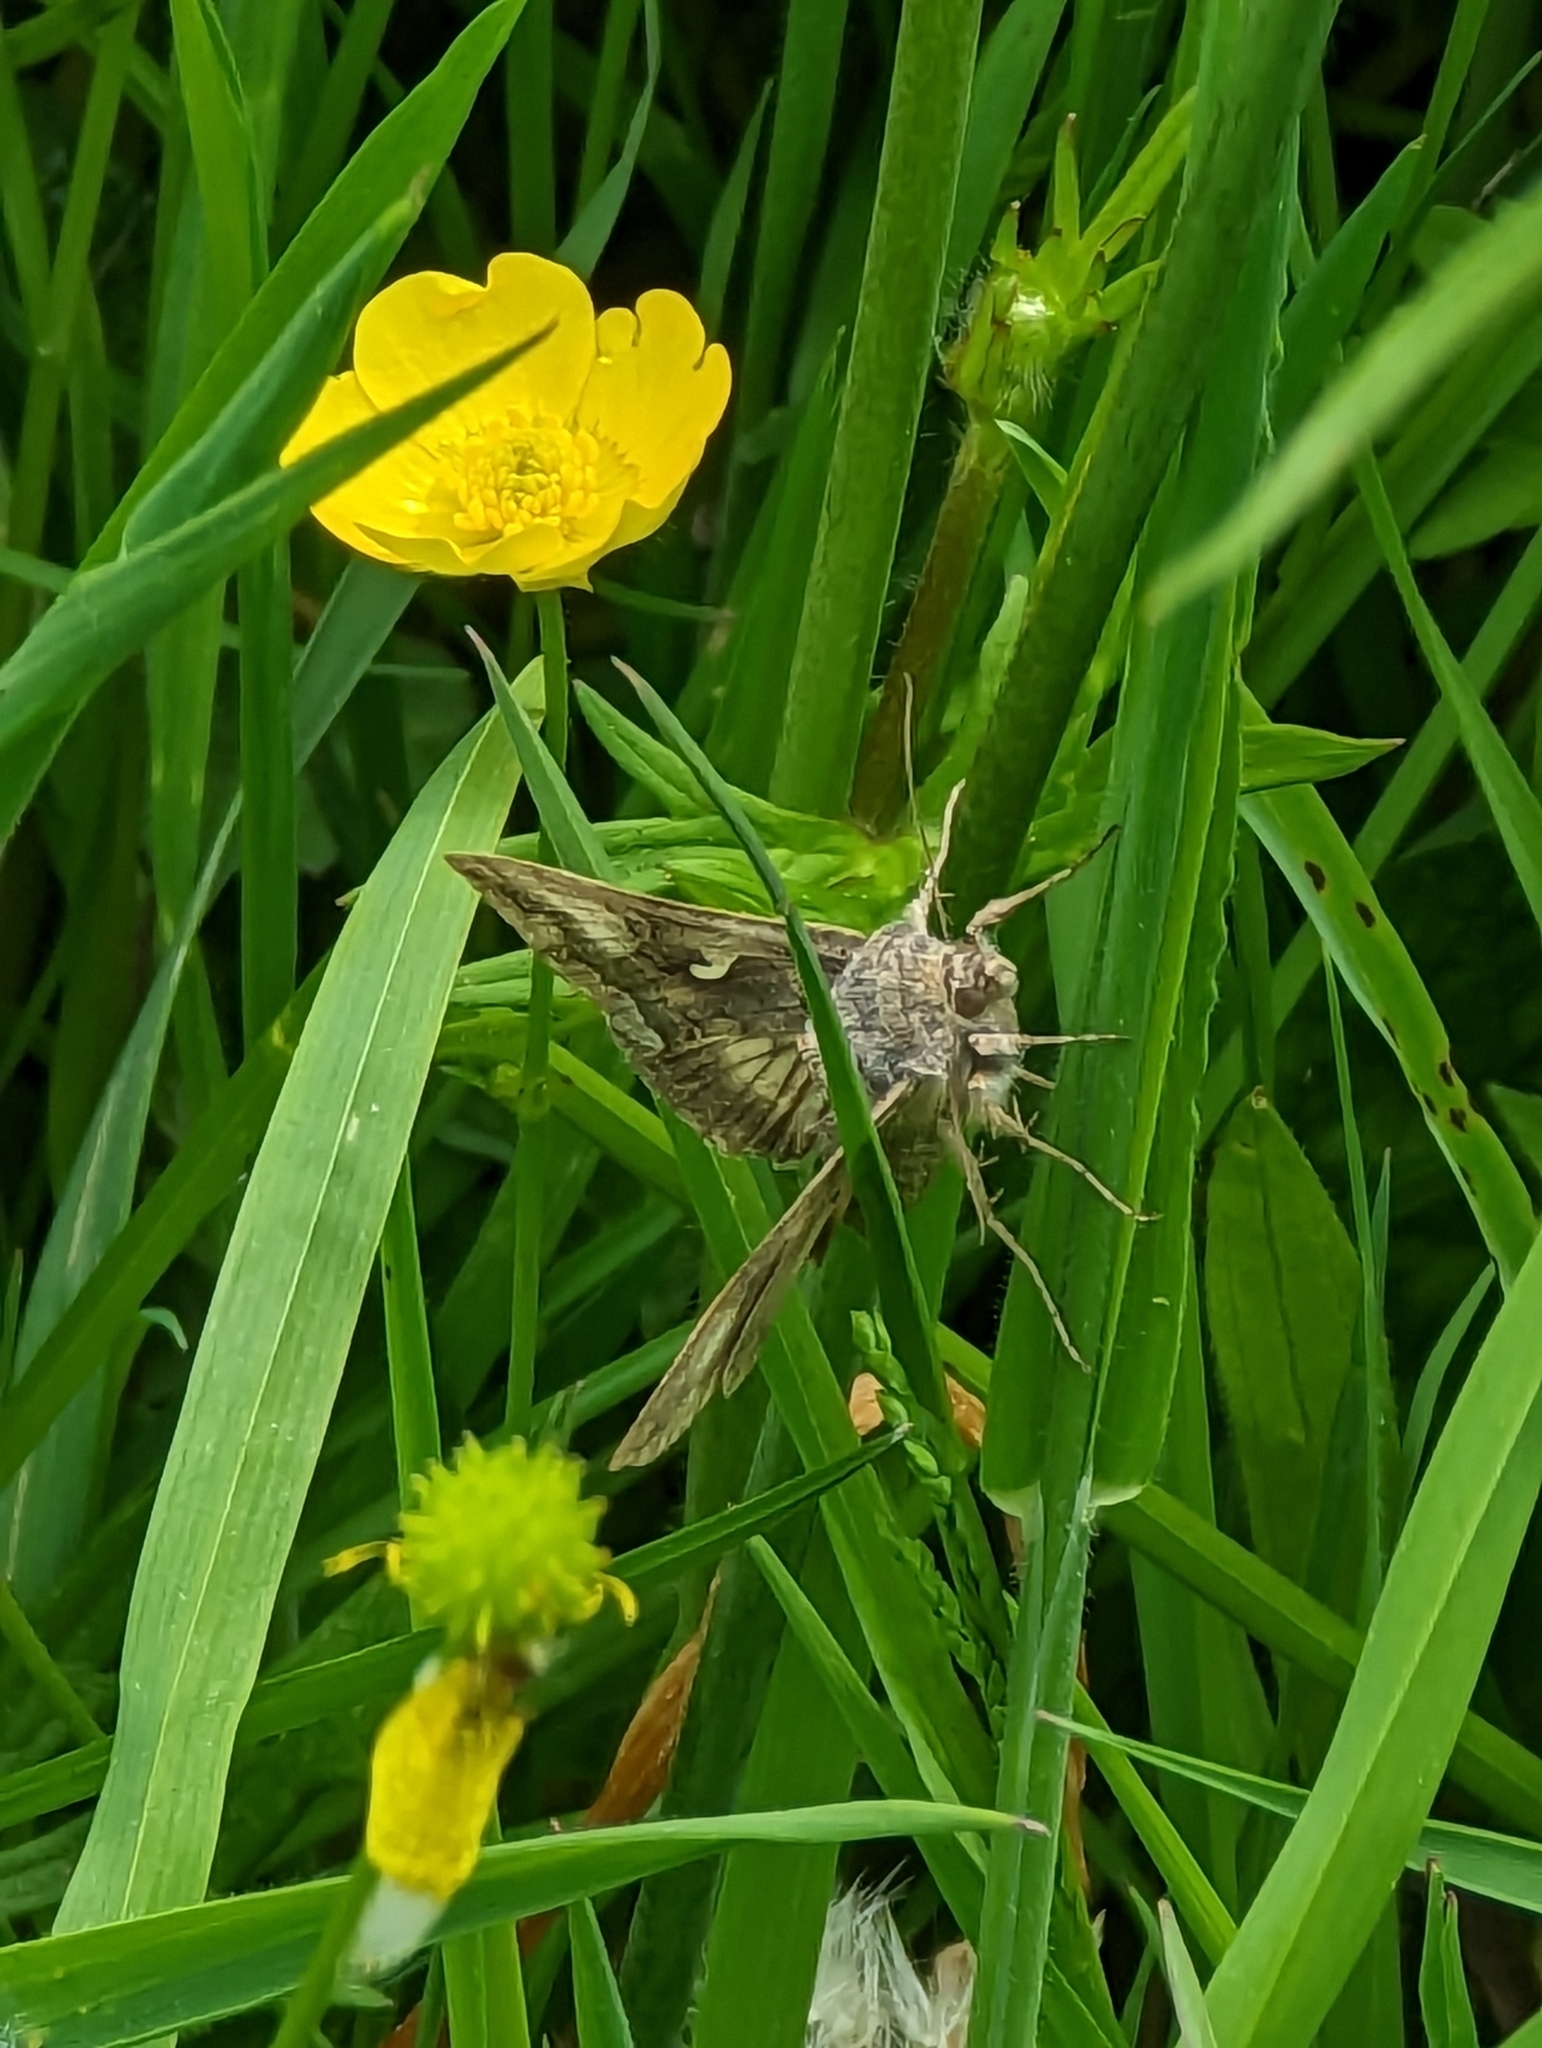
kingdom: Animalia
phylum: Arthropoda
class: Insecta
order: Lepidoptera
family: Noctuidae
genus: Autographa
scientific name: Autographa gamma
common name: Silver y
